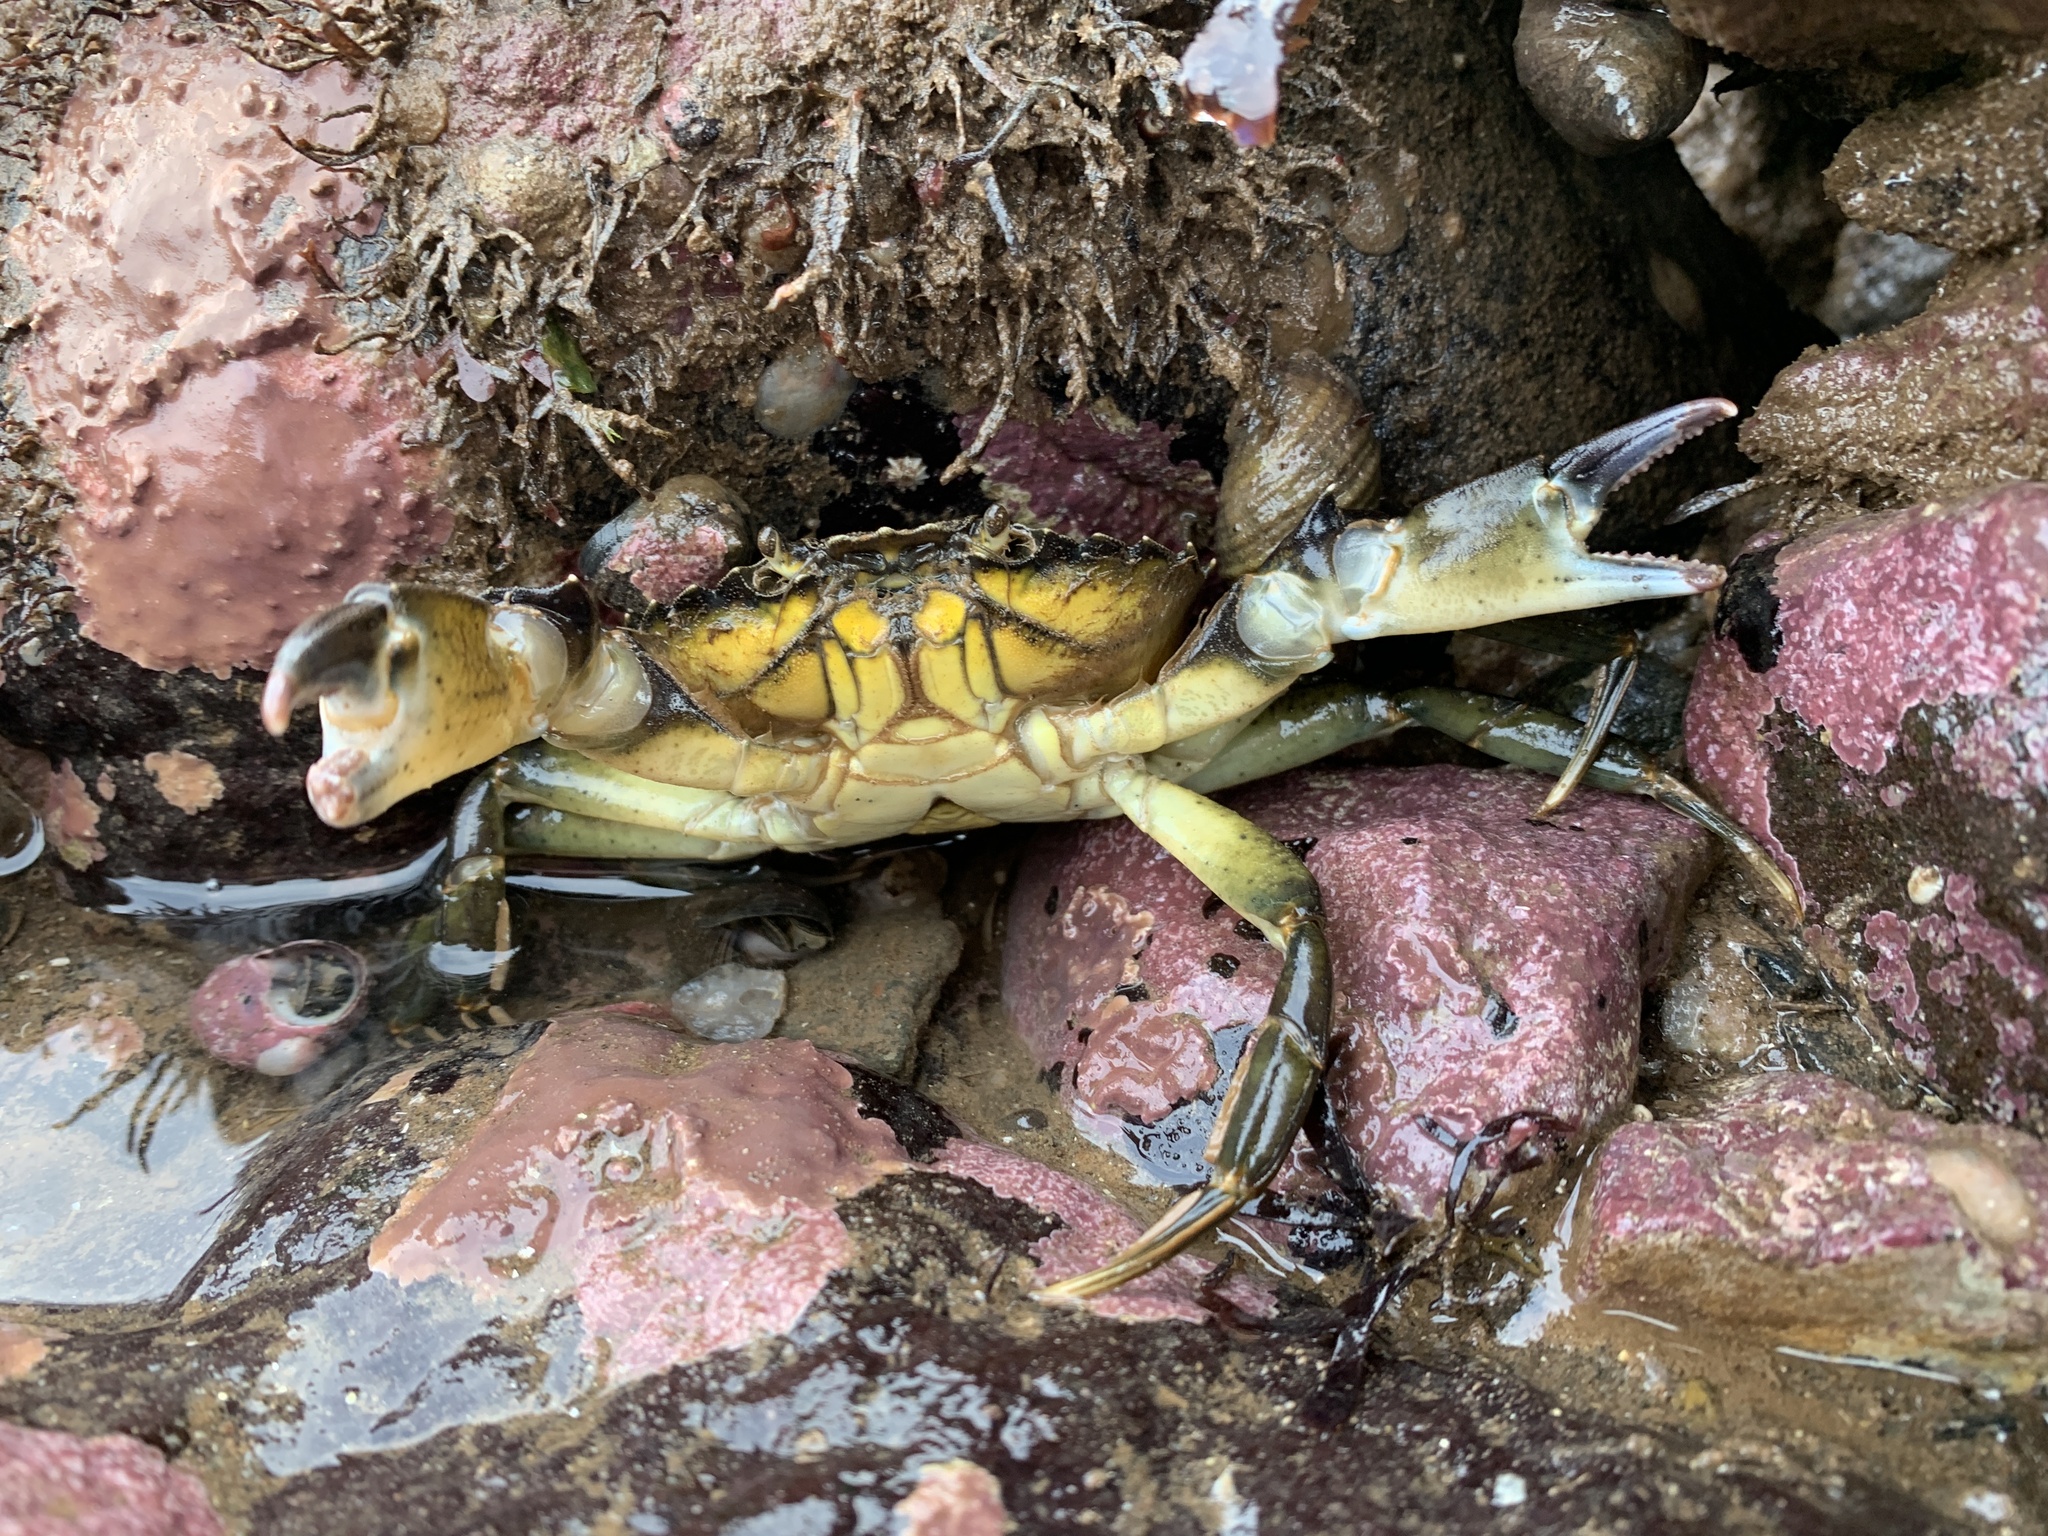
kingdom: Animalia
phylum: Arthropoda
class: Malacostraca
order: Decapoda
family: Carcinidae
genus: Carcinus
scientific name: Carcinus maenas
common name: European green crab
